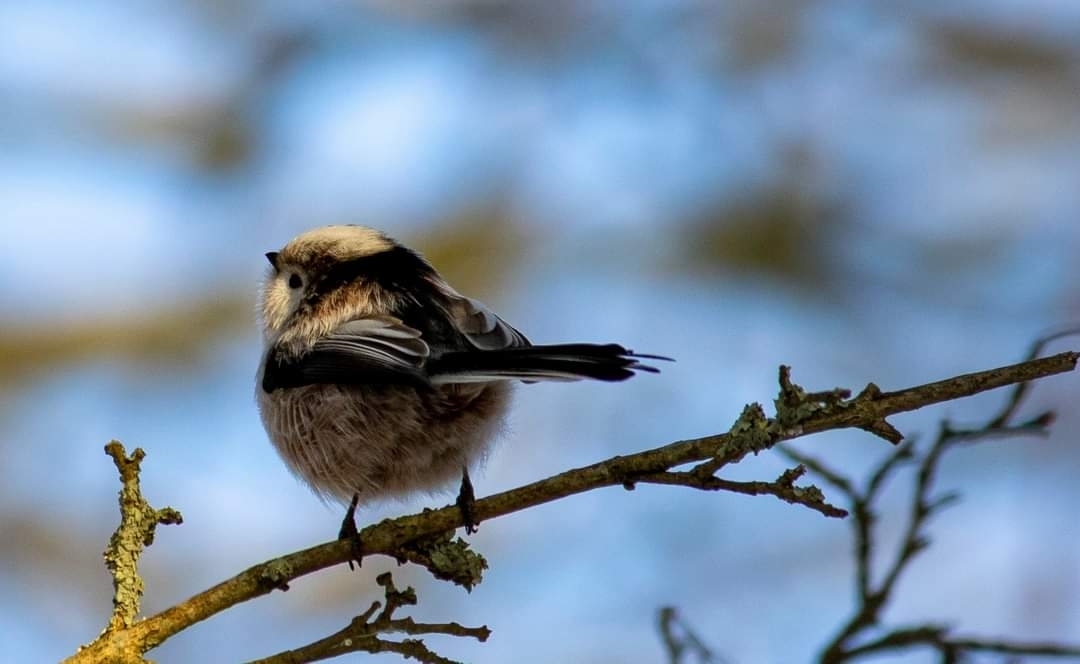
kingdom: Animalia
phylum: Chordata
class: Aves
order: Passeriformes
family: Aegithalidae
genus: Aegithalos
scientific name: Aegithalos caudatus
